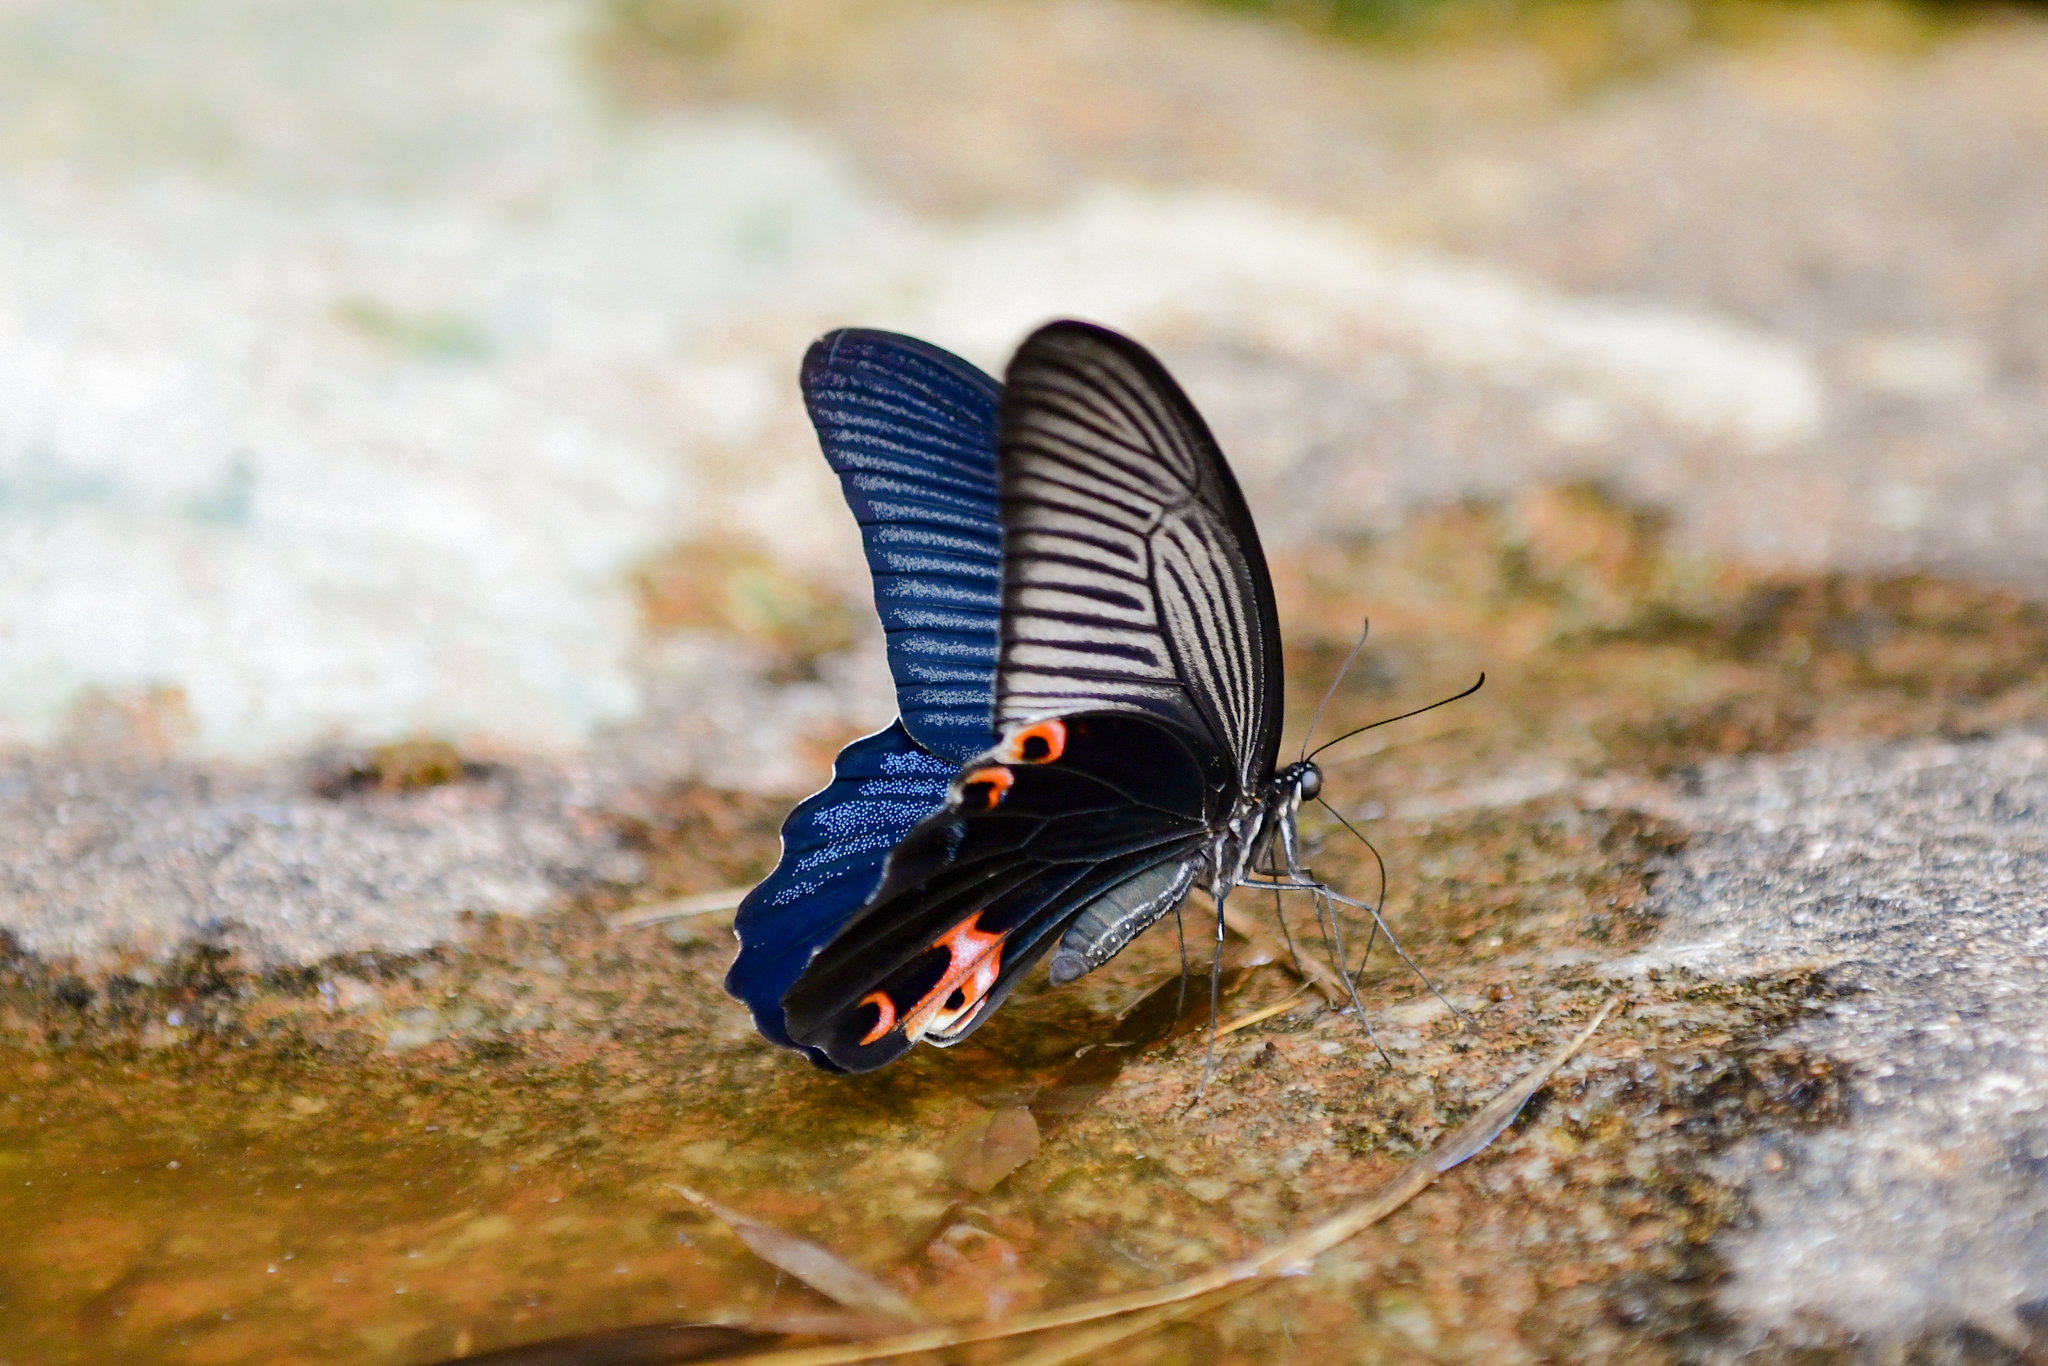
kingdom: Animalia
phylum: Arthropoda
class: Insecta
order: Lepidoptera
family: Papilionidae
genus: Papilio
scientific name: Papilio protenor
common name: Spangle
